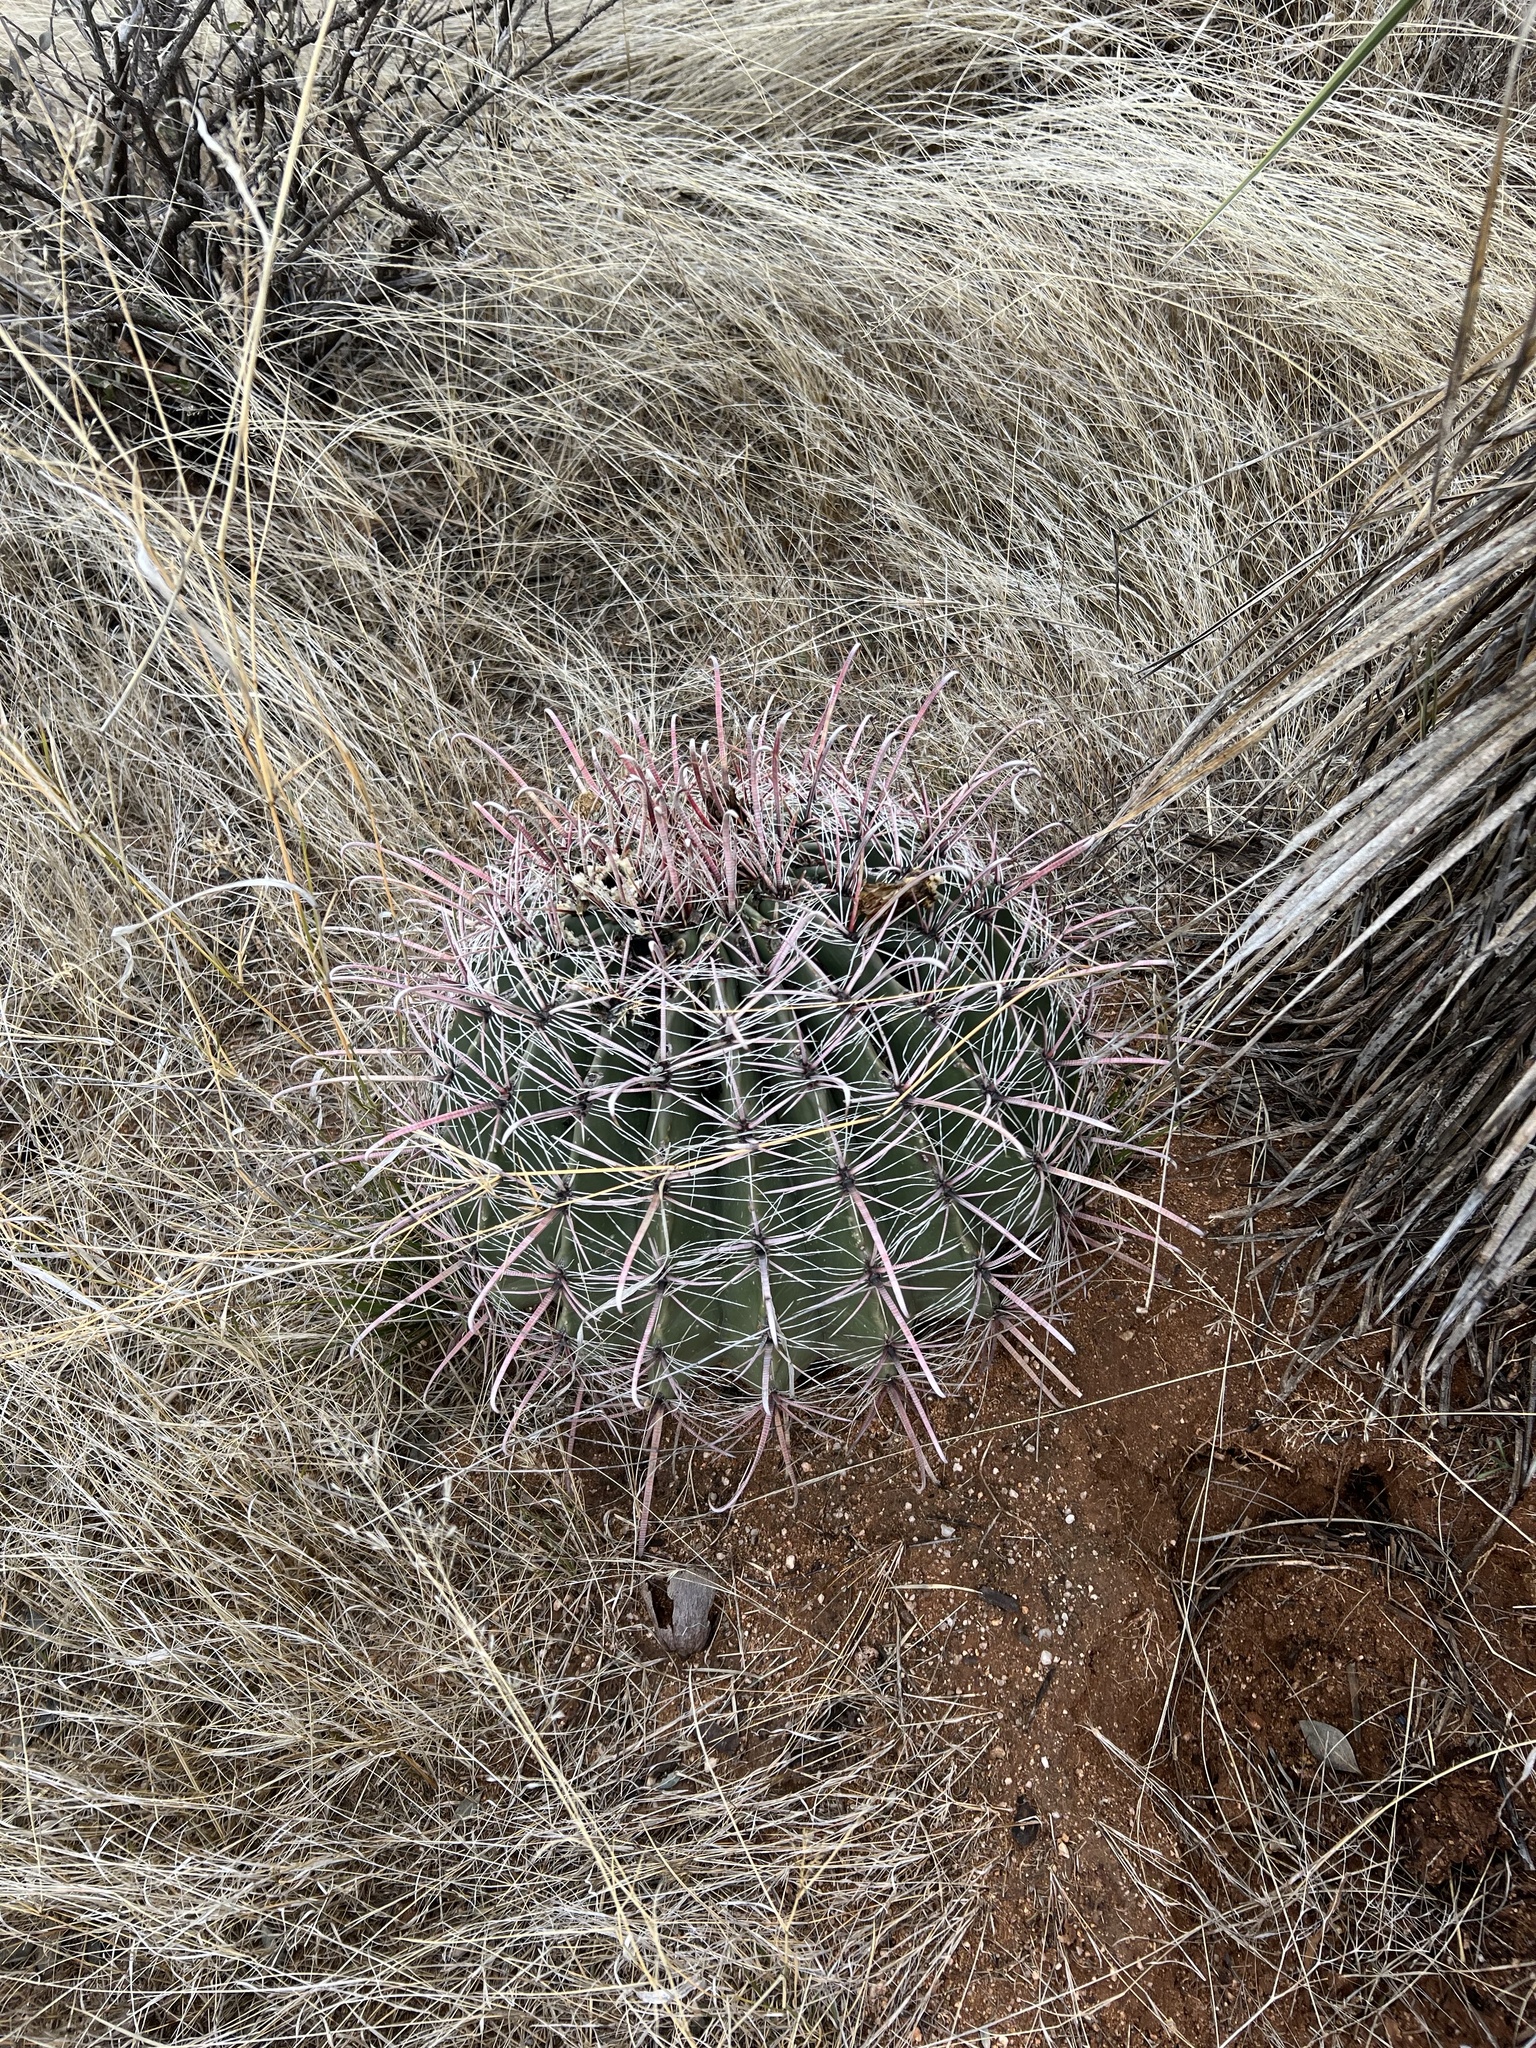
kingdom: Plantae
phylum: Tracheophyta
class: Magnoliopsida
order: Caryophyllales
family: Cactaceae
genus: Ferocactus
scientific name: Ferocactus wislizeni
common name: Candy barrel cactus
